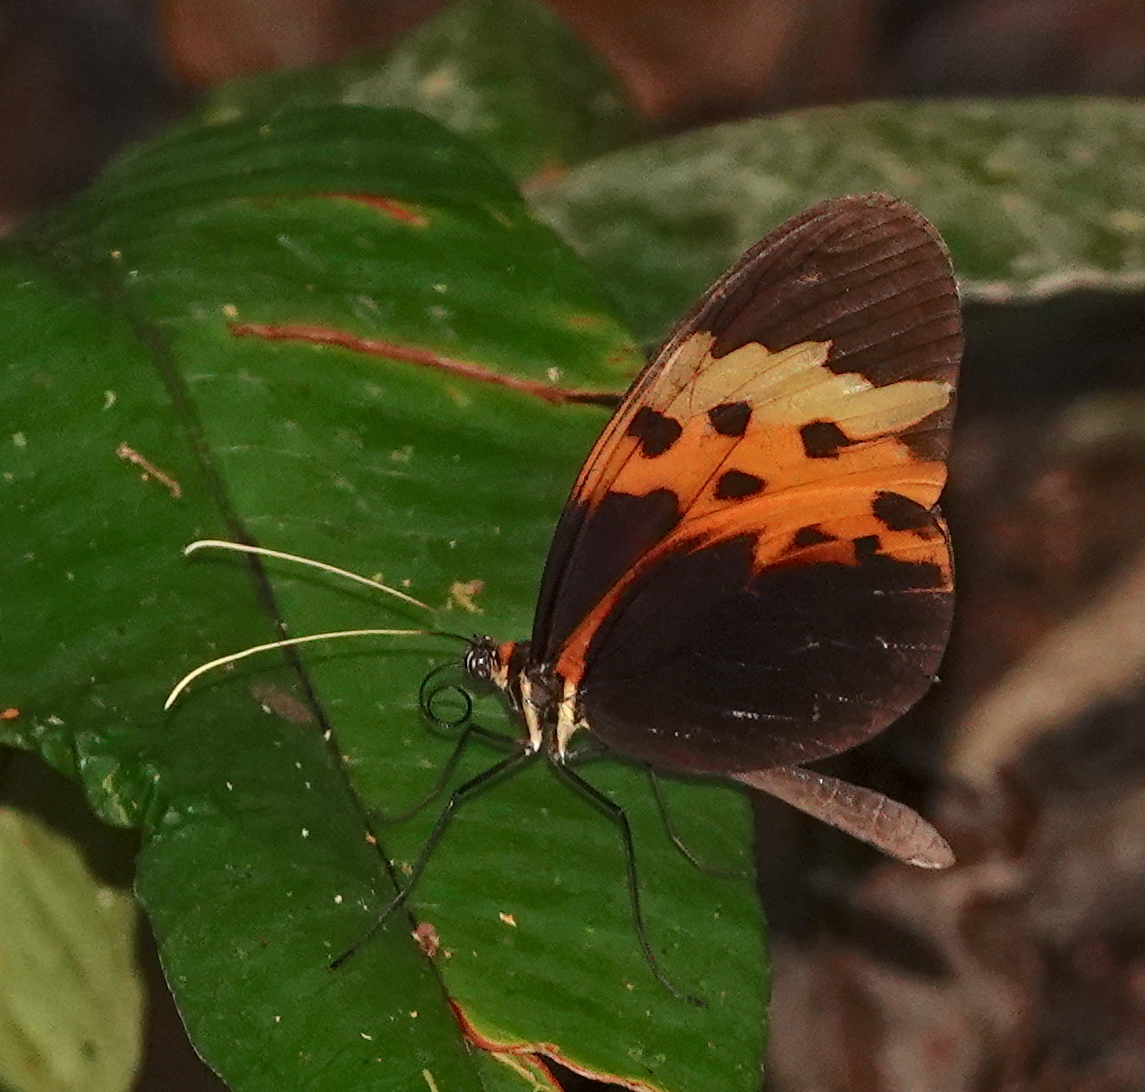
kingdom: Animalia
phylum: Arthropoda
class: Insecta
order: Lepidoptera
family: Nymphalidae
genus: Melinaea
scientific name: Melinaea marsaeus
